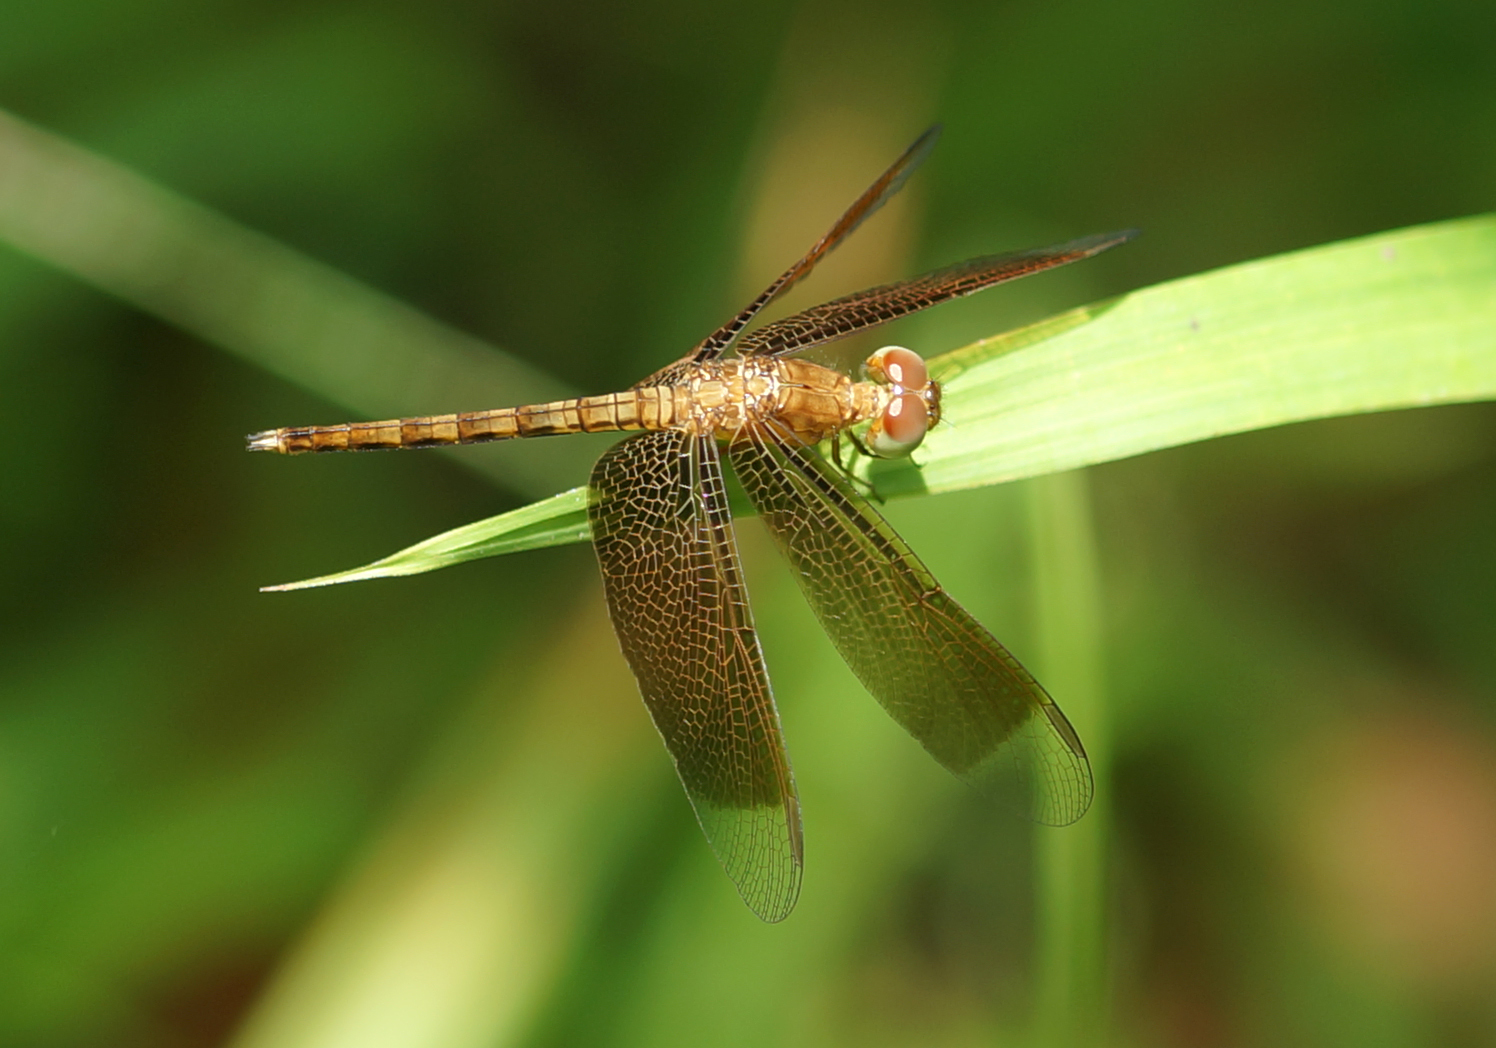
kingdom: Animalia
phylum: Arthropoda
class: Insecta
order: Odonata
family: Libellulidae
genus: Neurothemis
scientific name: Neurothemis fluctuans
